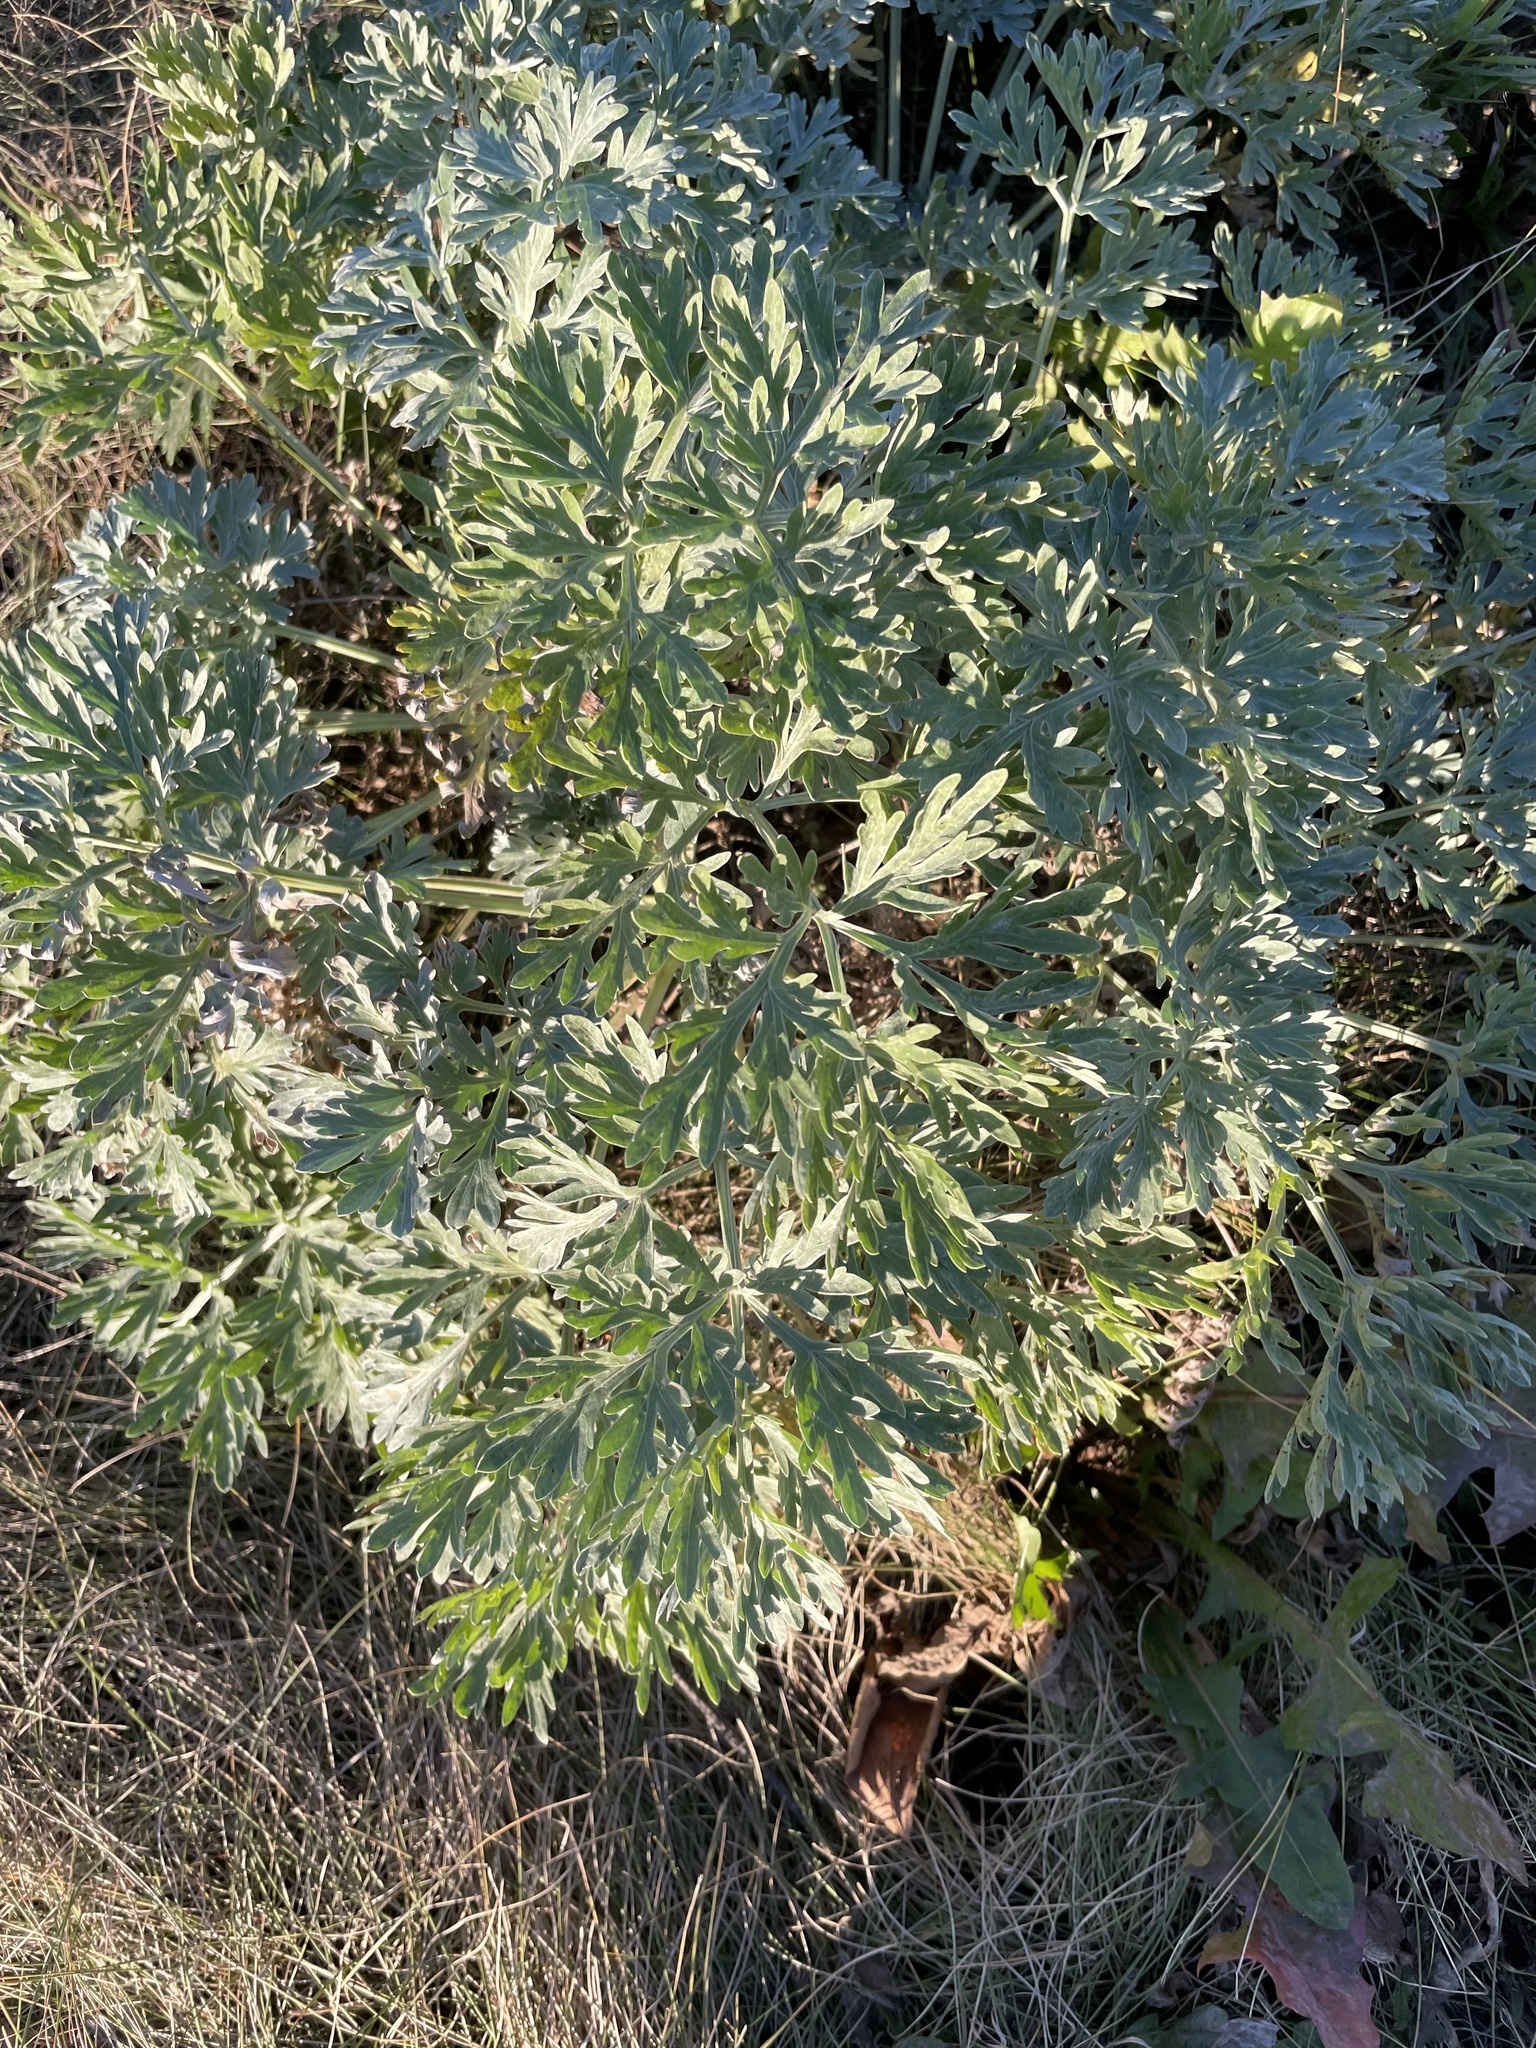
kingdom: Plantae
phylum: Tracheophyta
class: Magnoliopsida
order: Asterales
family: Asteraceae
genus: Artemisia
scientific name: Artemisia absinthium
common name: Wormwood
